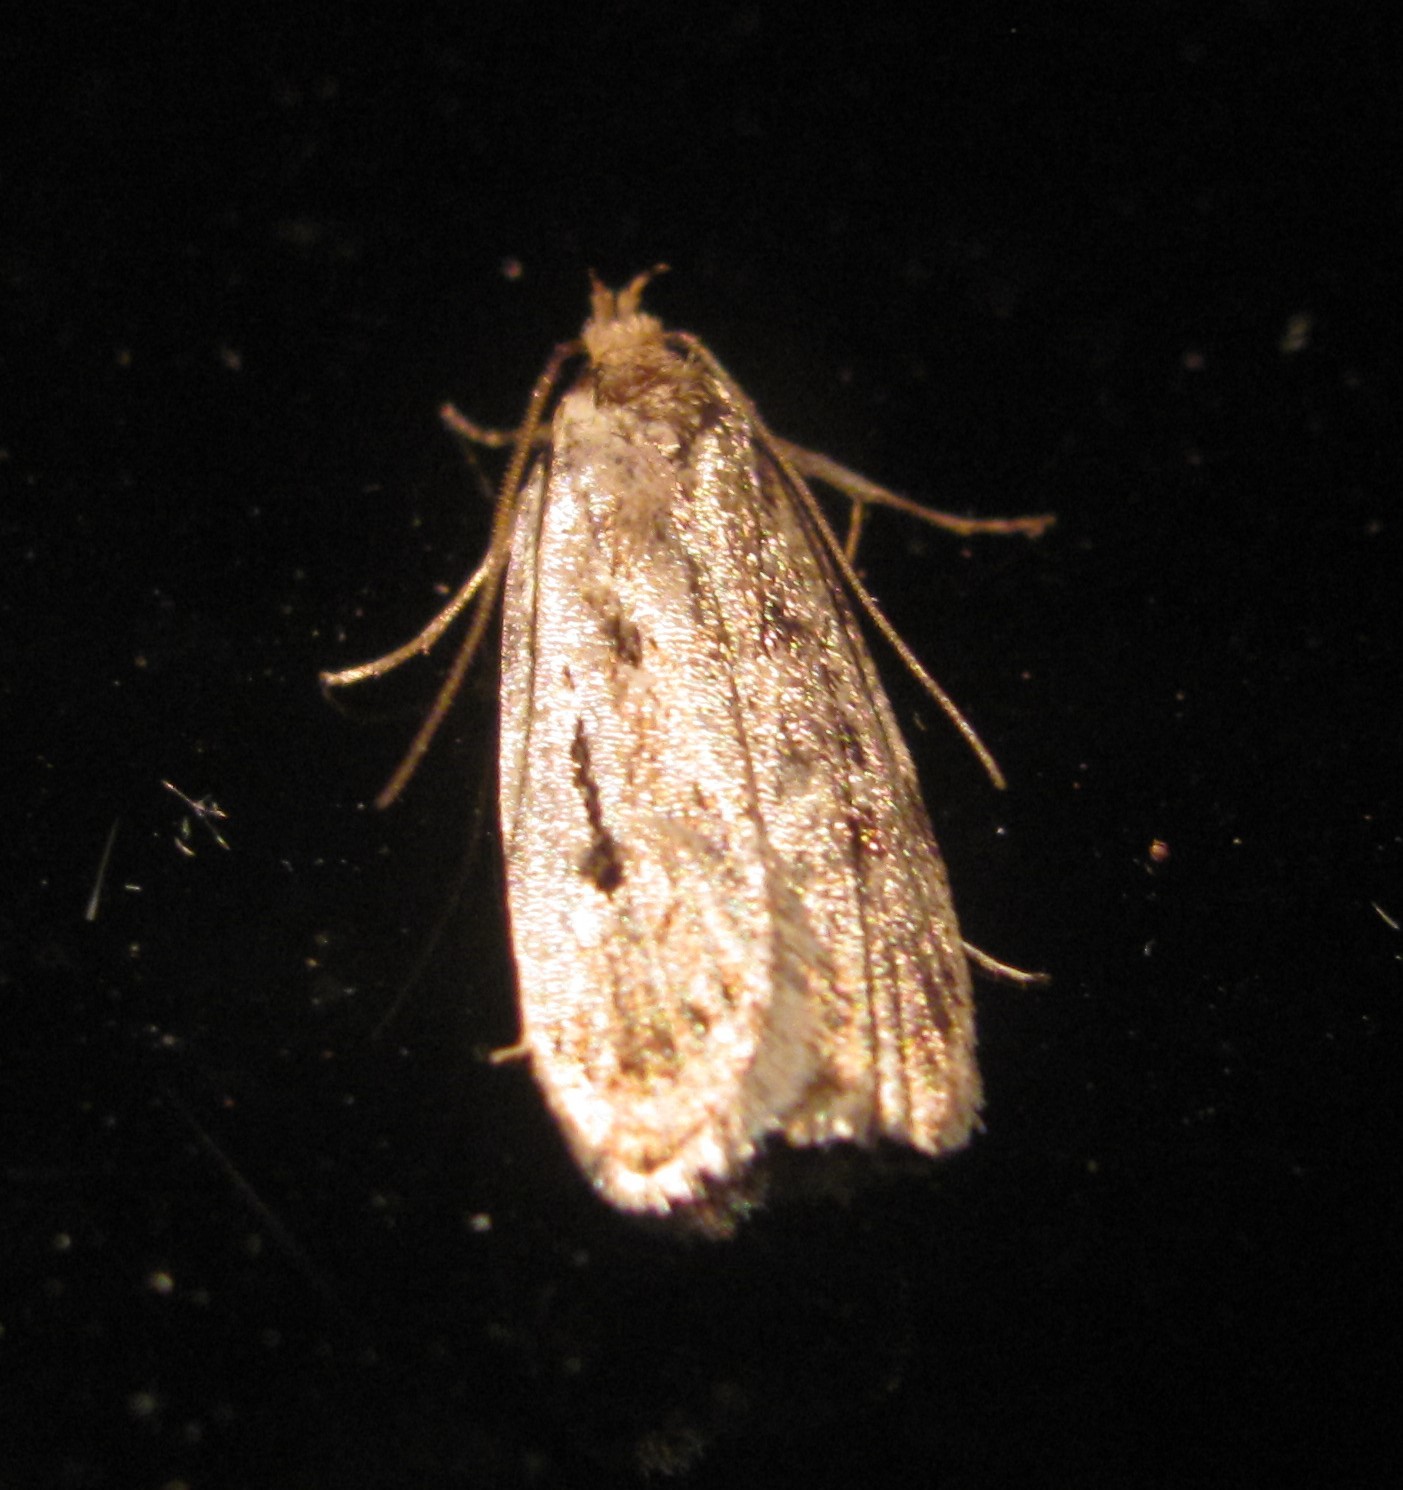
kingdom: Animalia
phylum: Arthropoda
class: Insecta
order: Lepidoptera
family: Oecophoridae
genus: Barea
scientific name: Barea exarcha
